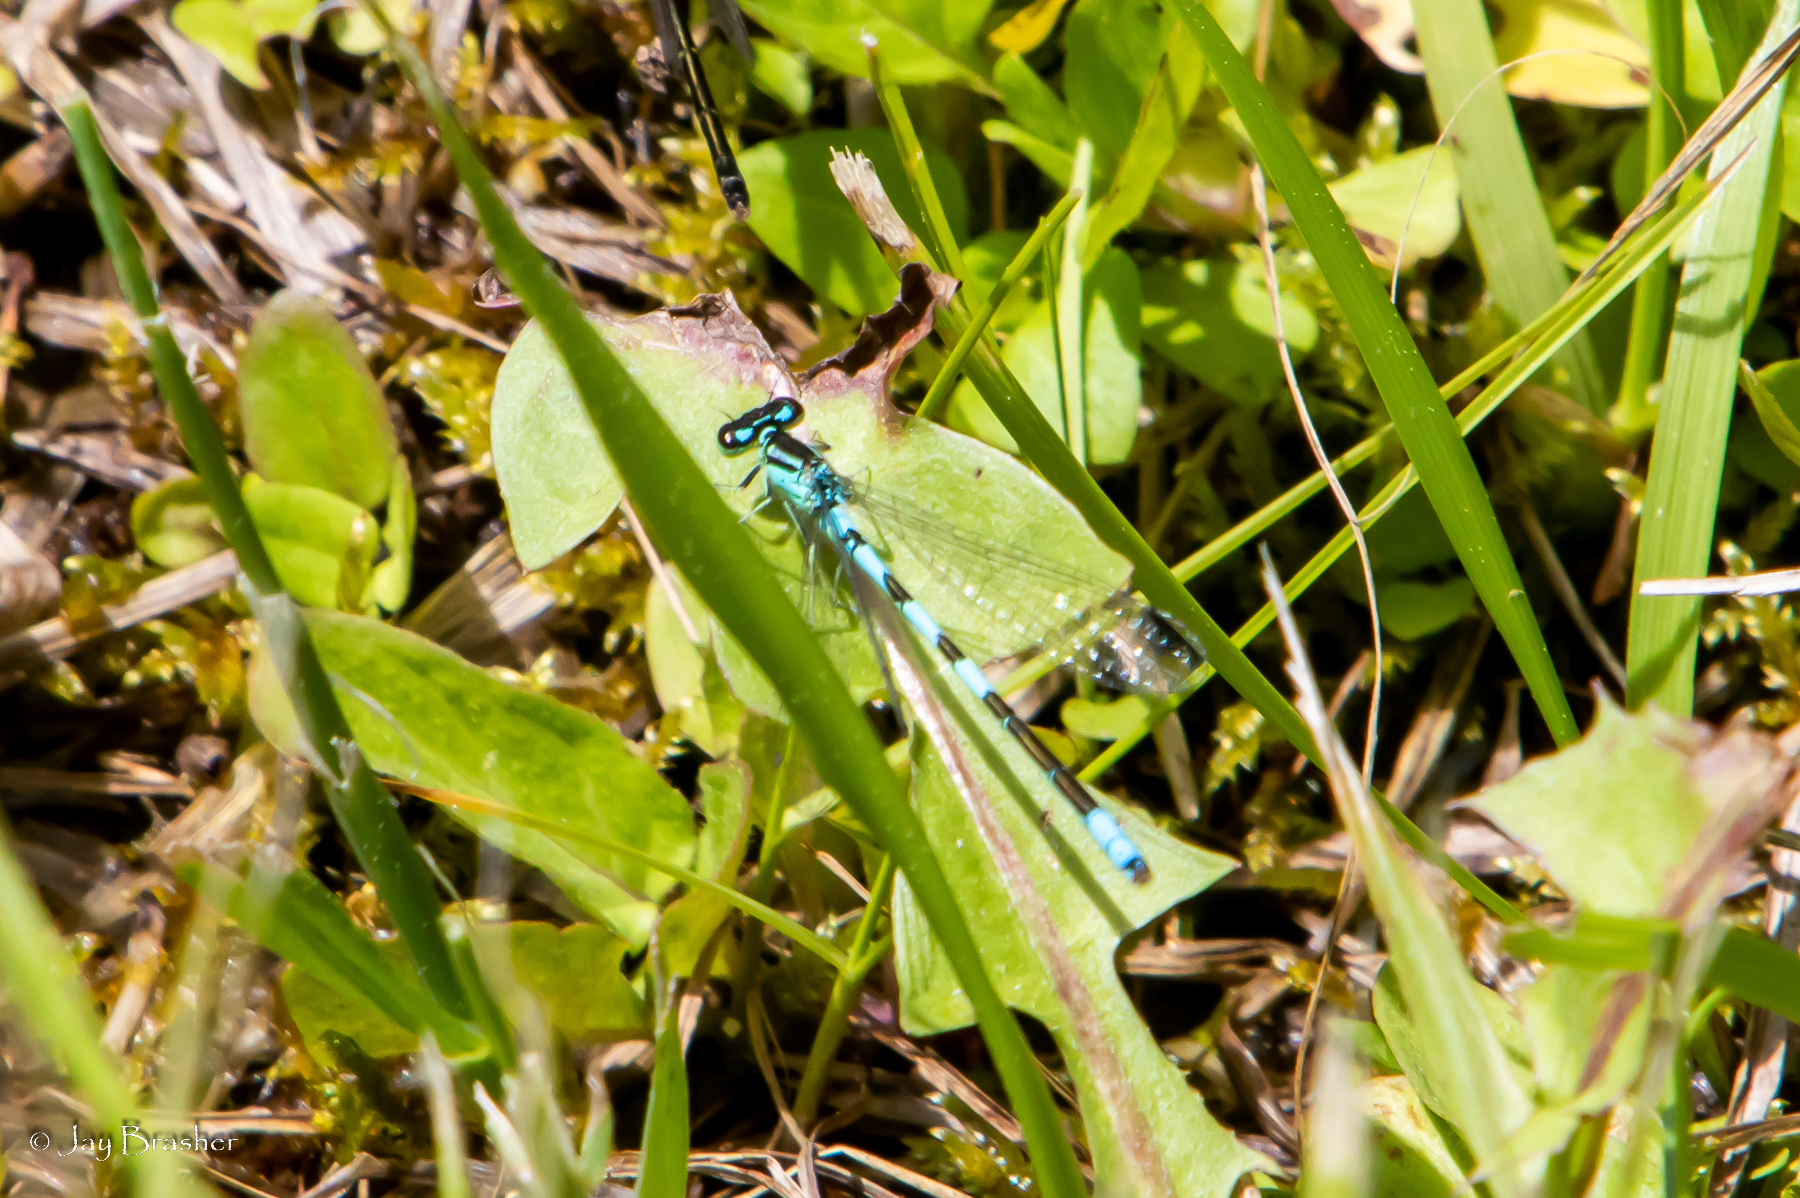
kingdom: Animalia
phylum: Arthropoda
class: Insecta
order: Odonata
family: Coenagrionidae
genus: Coenagrion
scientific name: Coenagrion resolutum
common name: Taiga bluet
